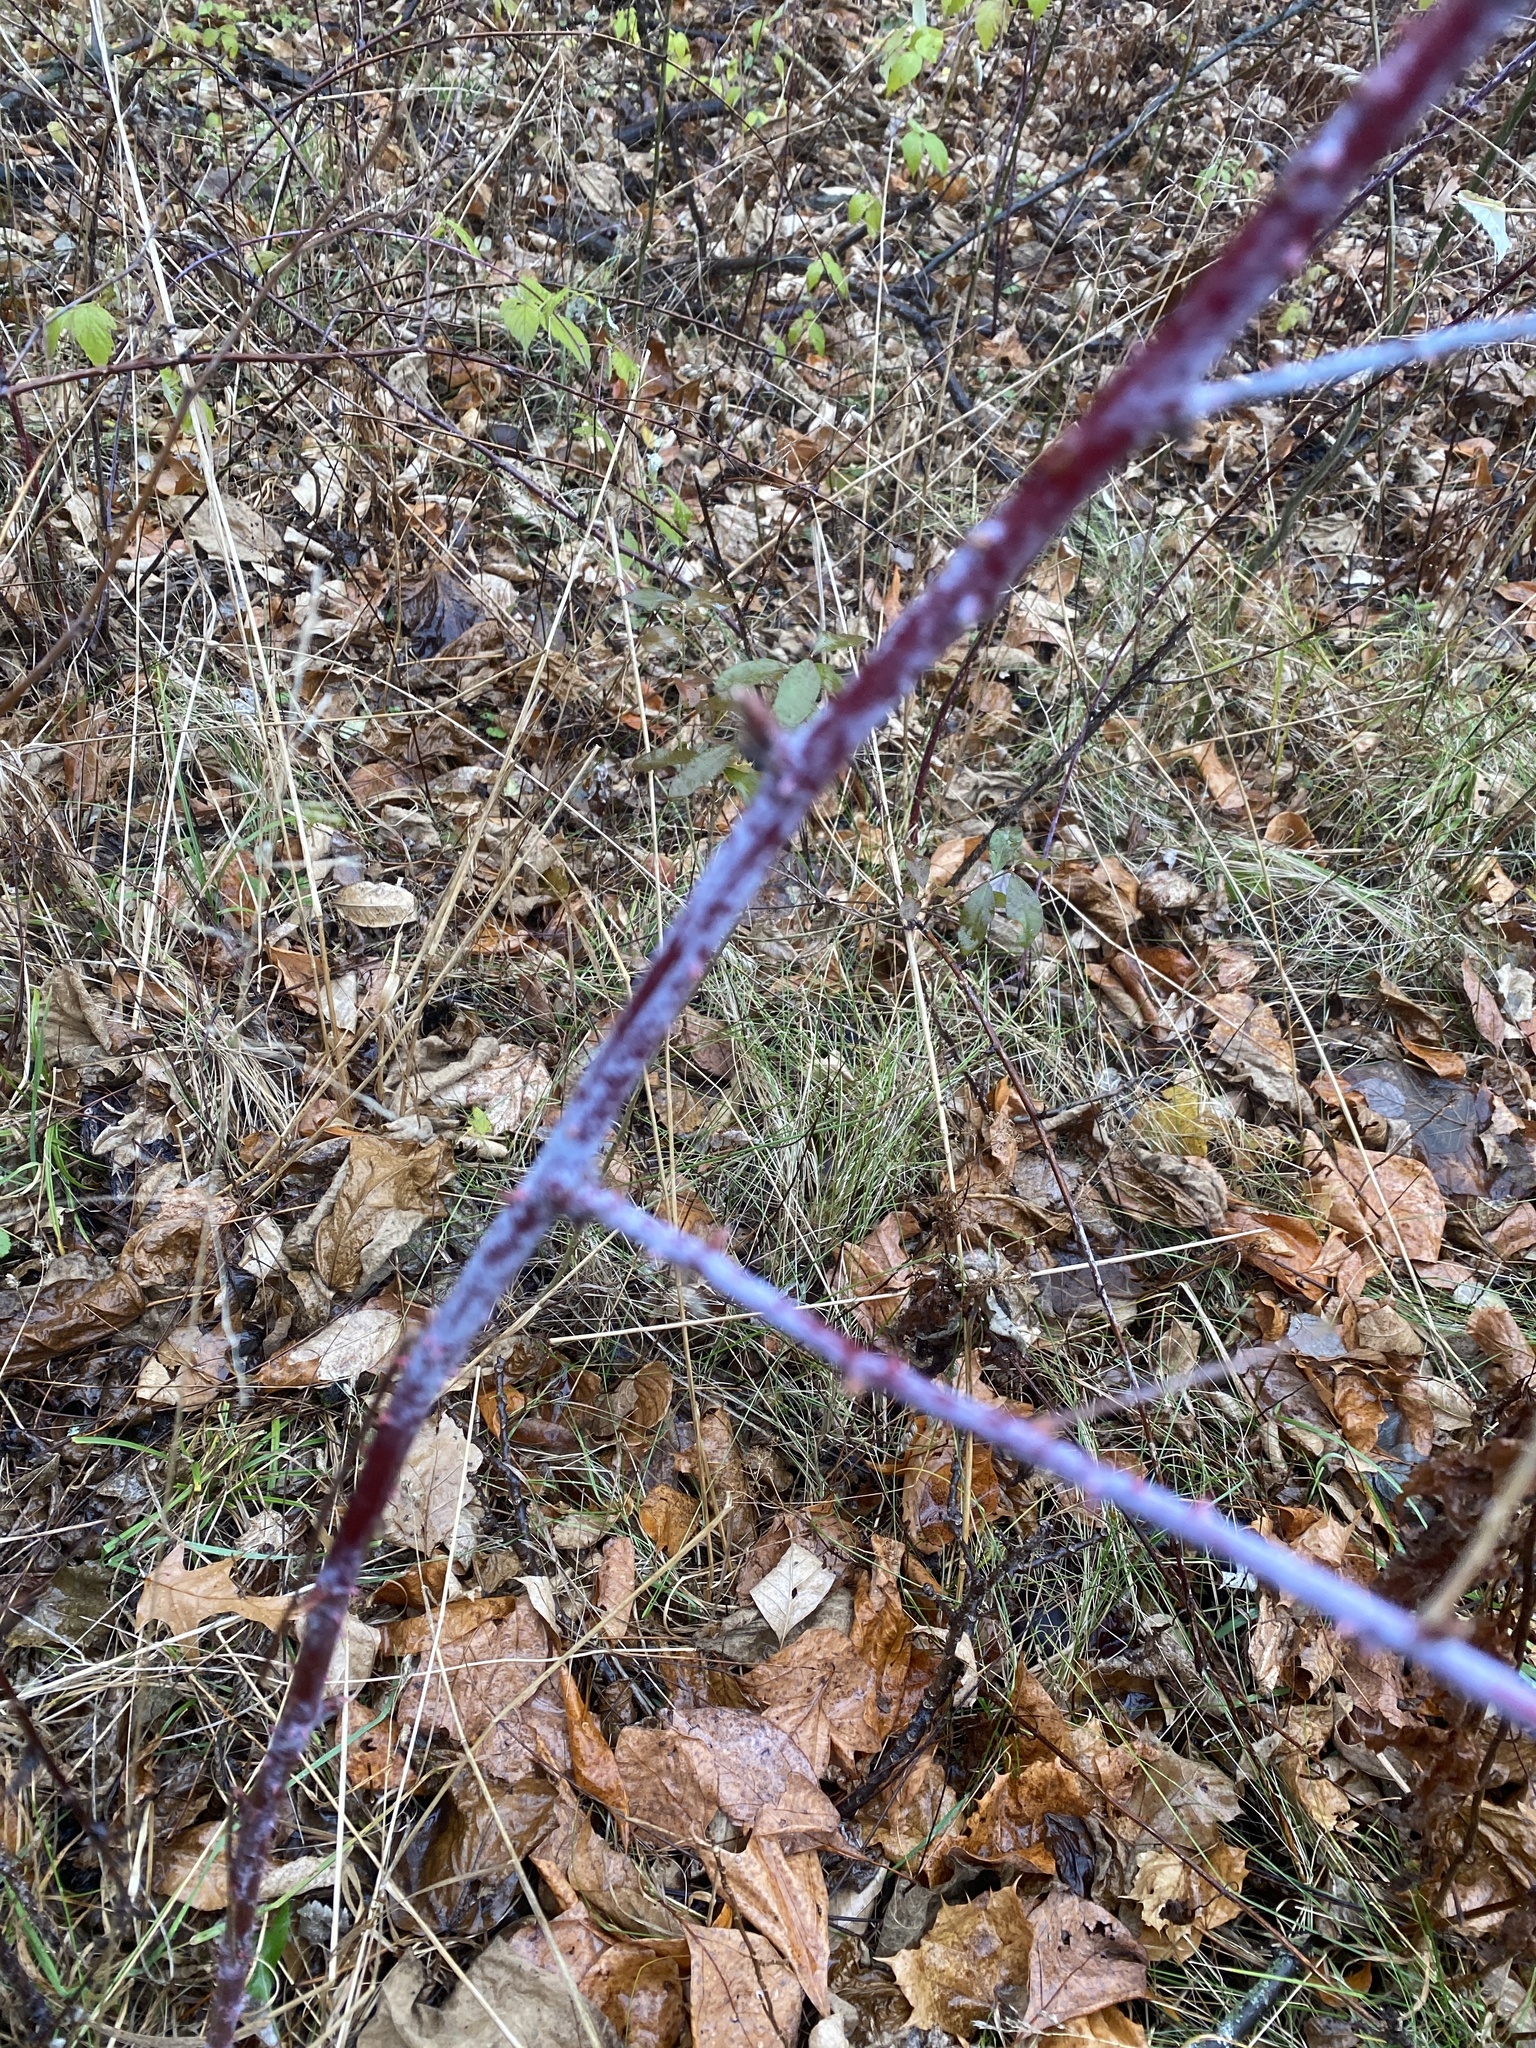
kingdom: Plantae
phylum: Tracheophyta
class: Magnoliopsida
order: Rosales
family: Rosaceae
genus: Rubus
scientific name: Rubus occidentalis
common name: Black raspberry
